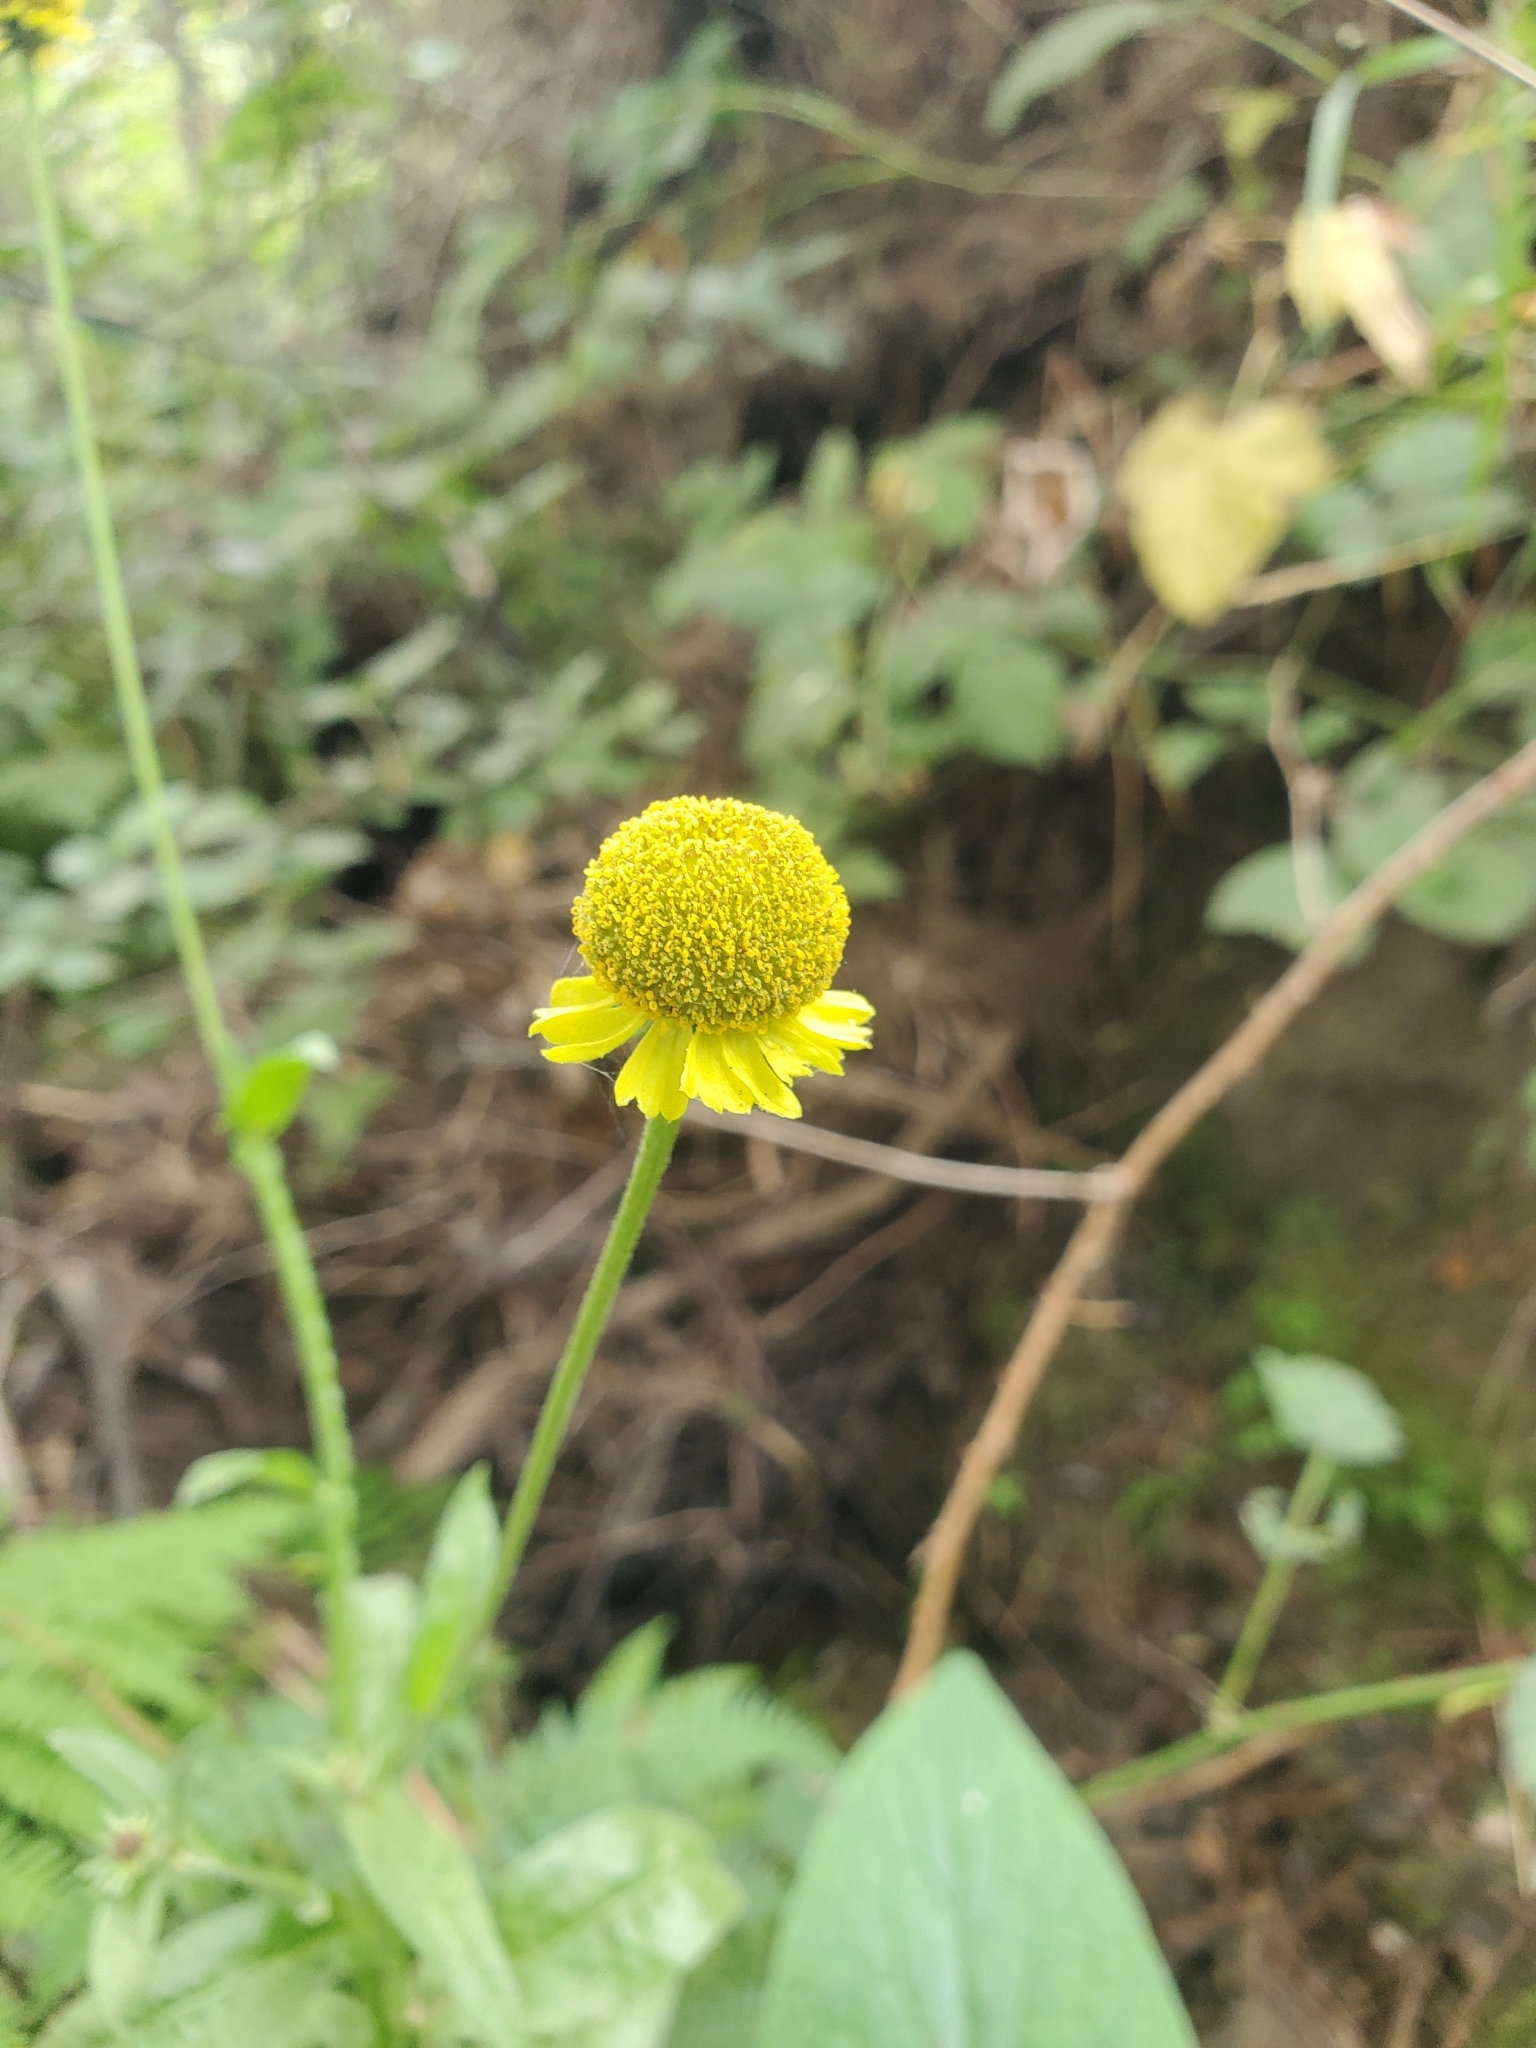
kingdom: Plantae
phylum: Tracheophyta
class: Magnoliopsida
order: Asterales
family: Asteraceae
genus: Helenium
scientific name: Helenium puberulum
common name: Sneezewort
